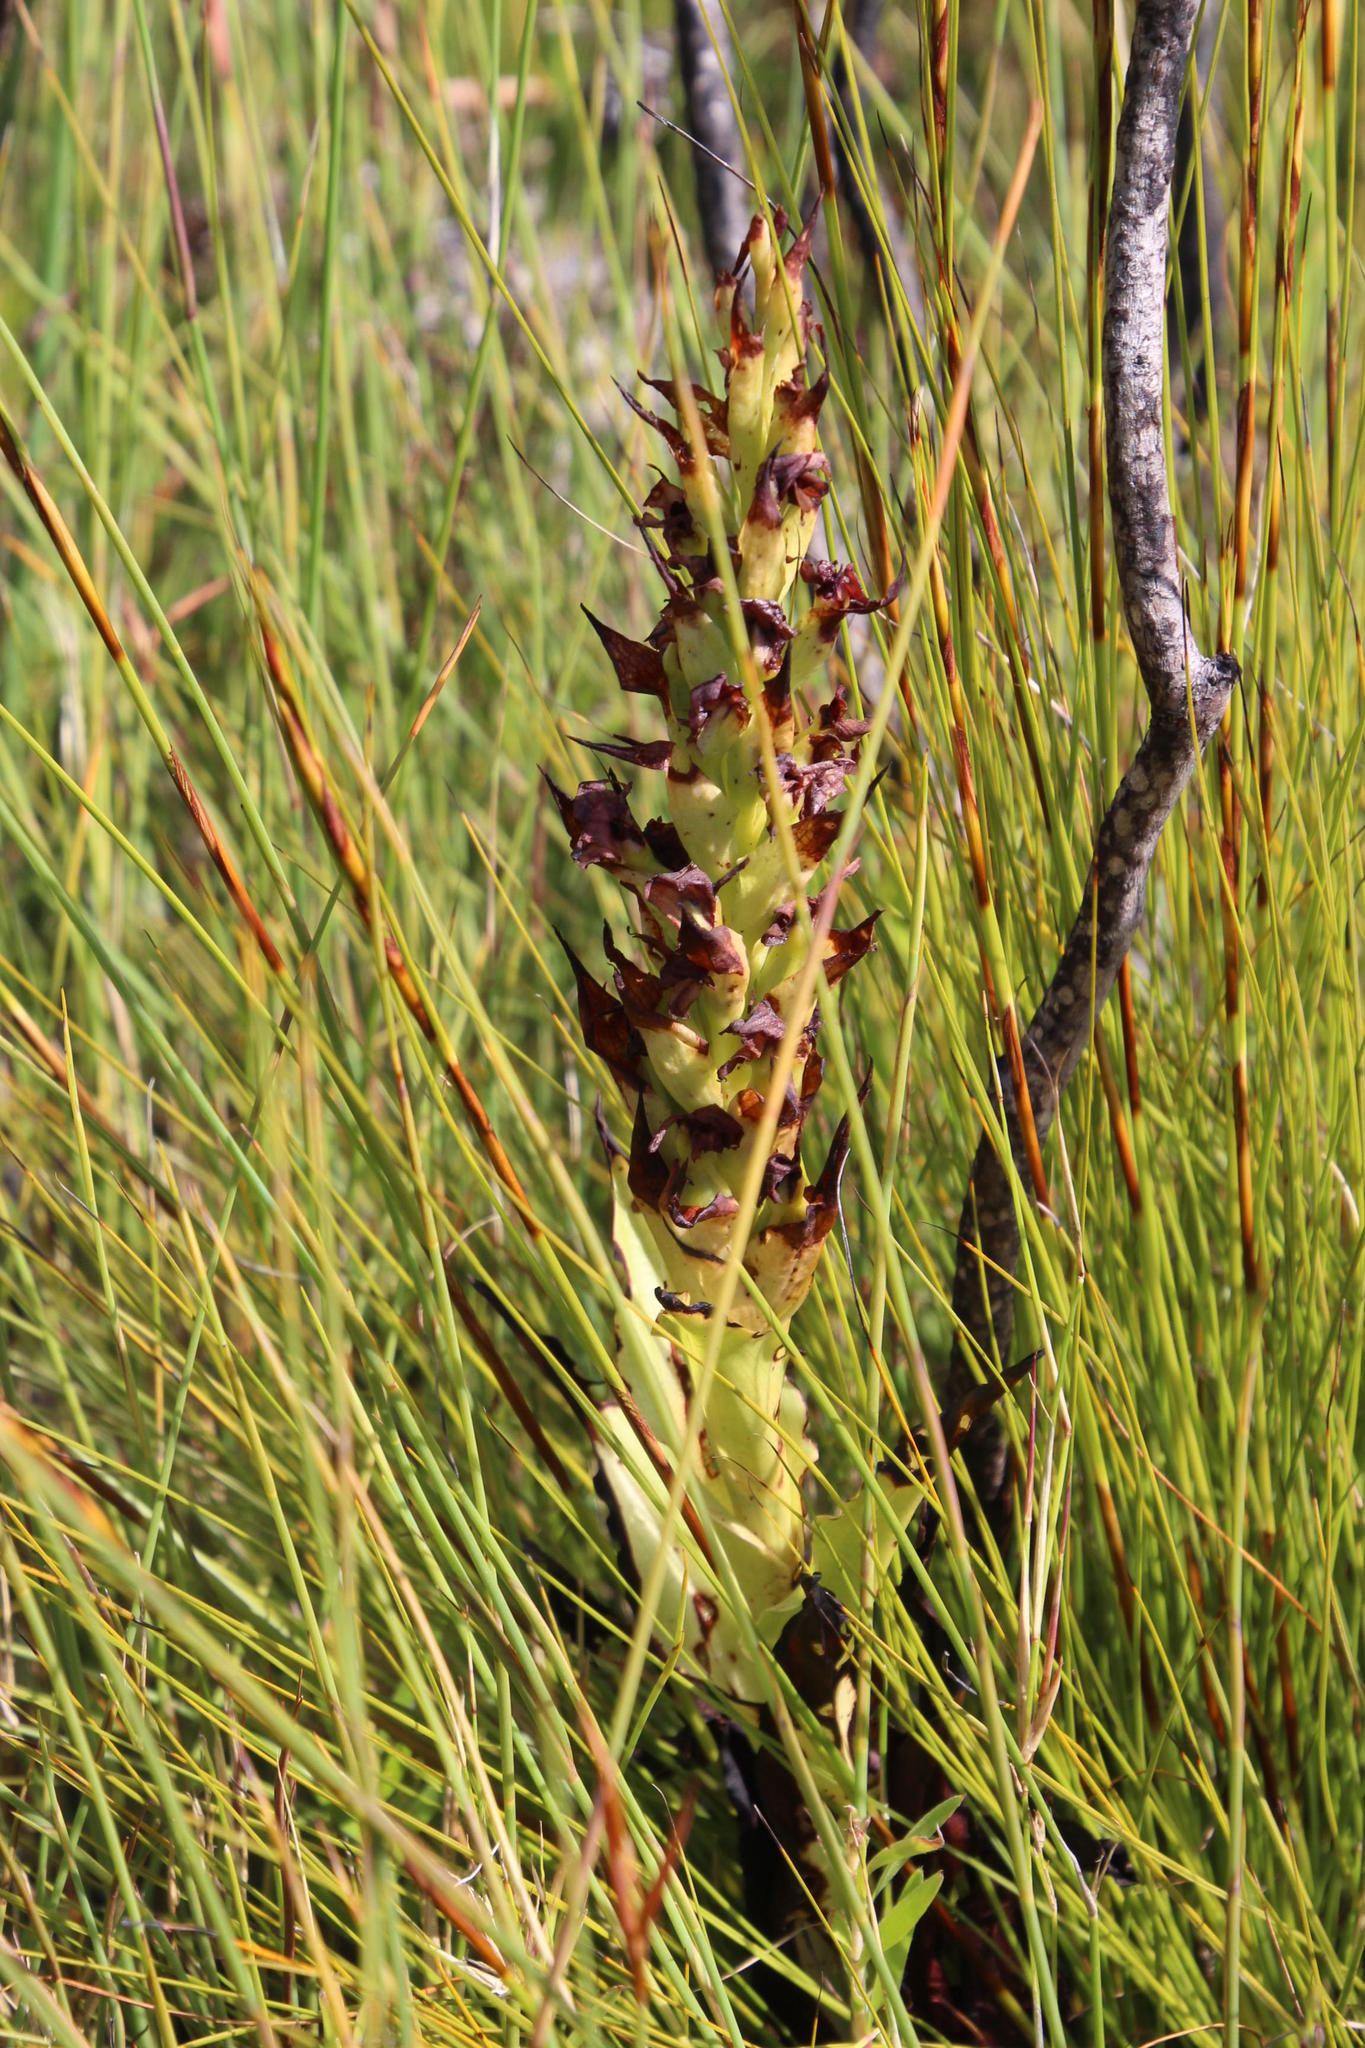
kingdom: Plantae
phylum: Tracheophyta
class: Liliopsida
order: Asparagales
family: Orchidaceae
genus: Disa
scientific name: Disa cornuta
